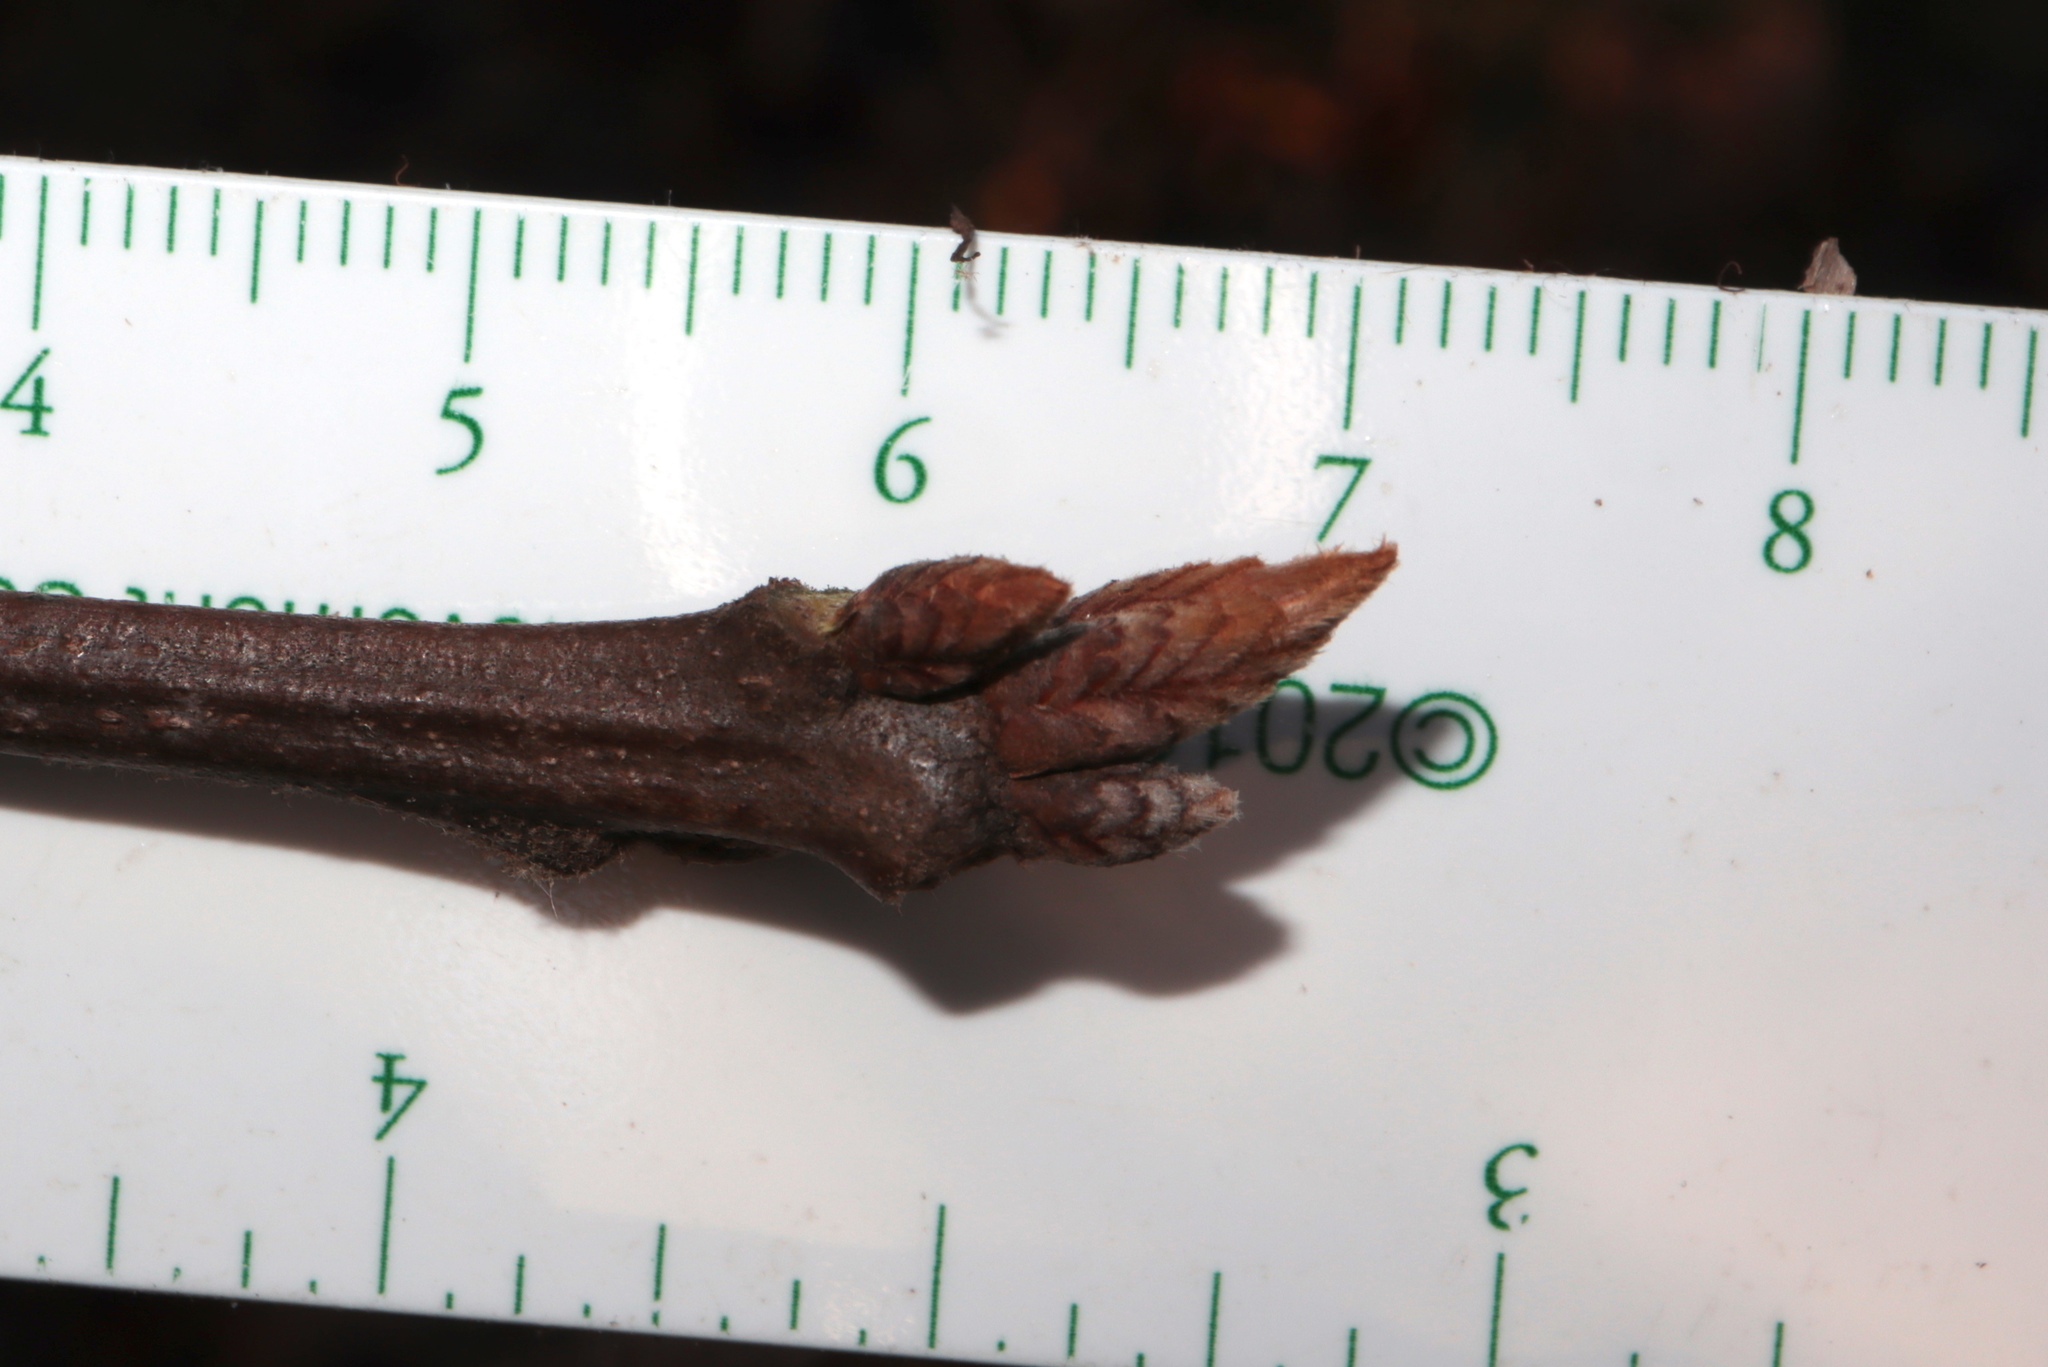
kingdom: Plantae
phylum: Tracheophyta
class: Magnoliopsida
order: Fagales
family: Fagaceae
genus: Quercus
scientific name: Quercus velutina
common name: Black oak
